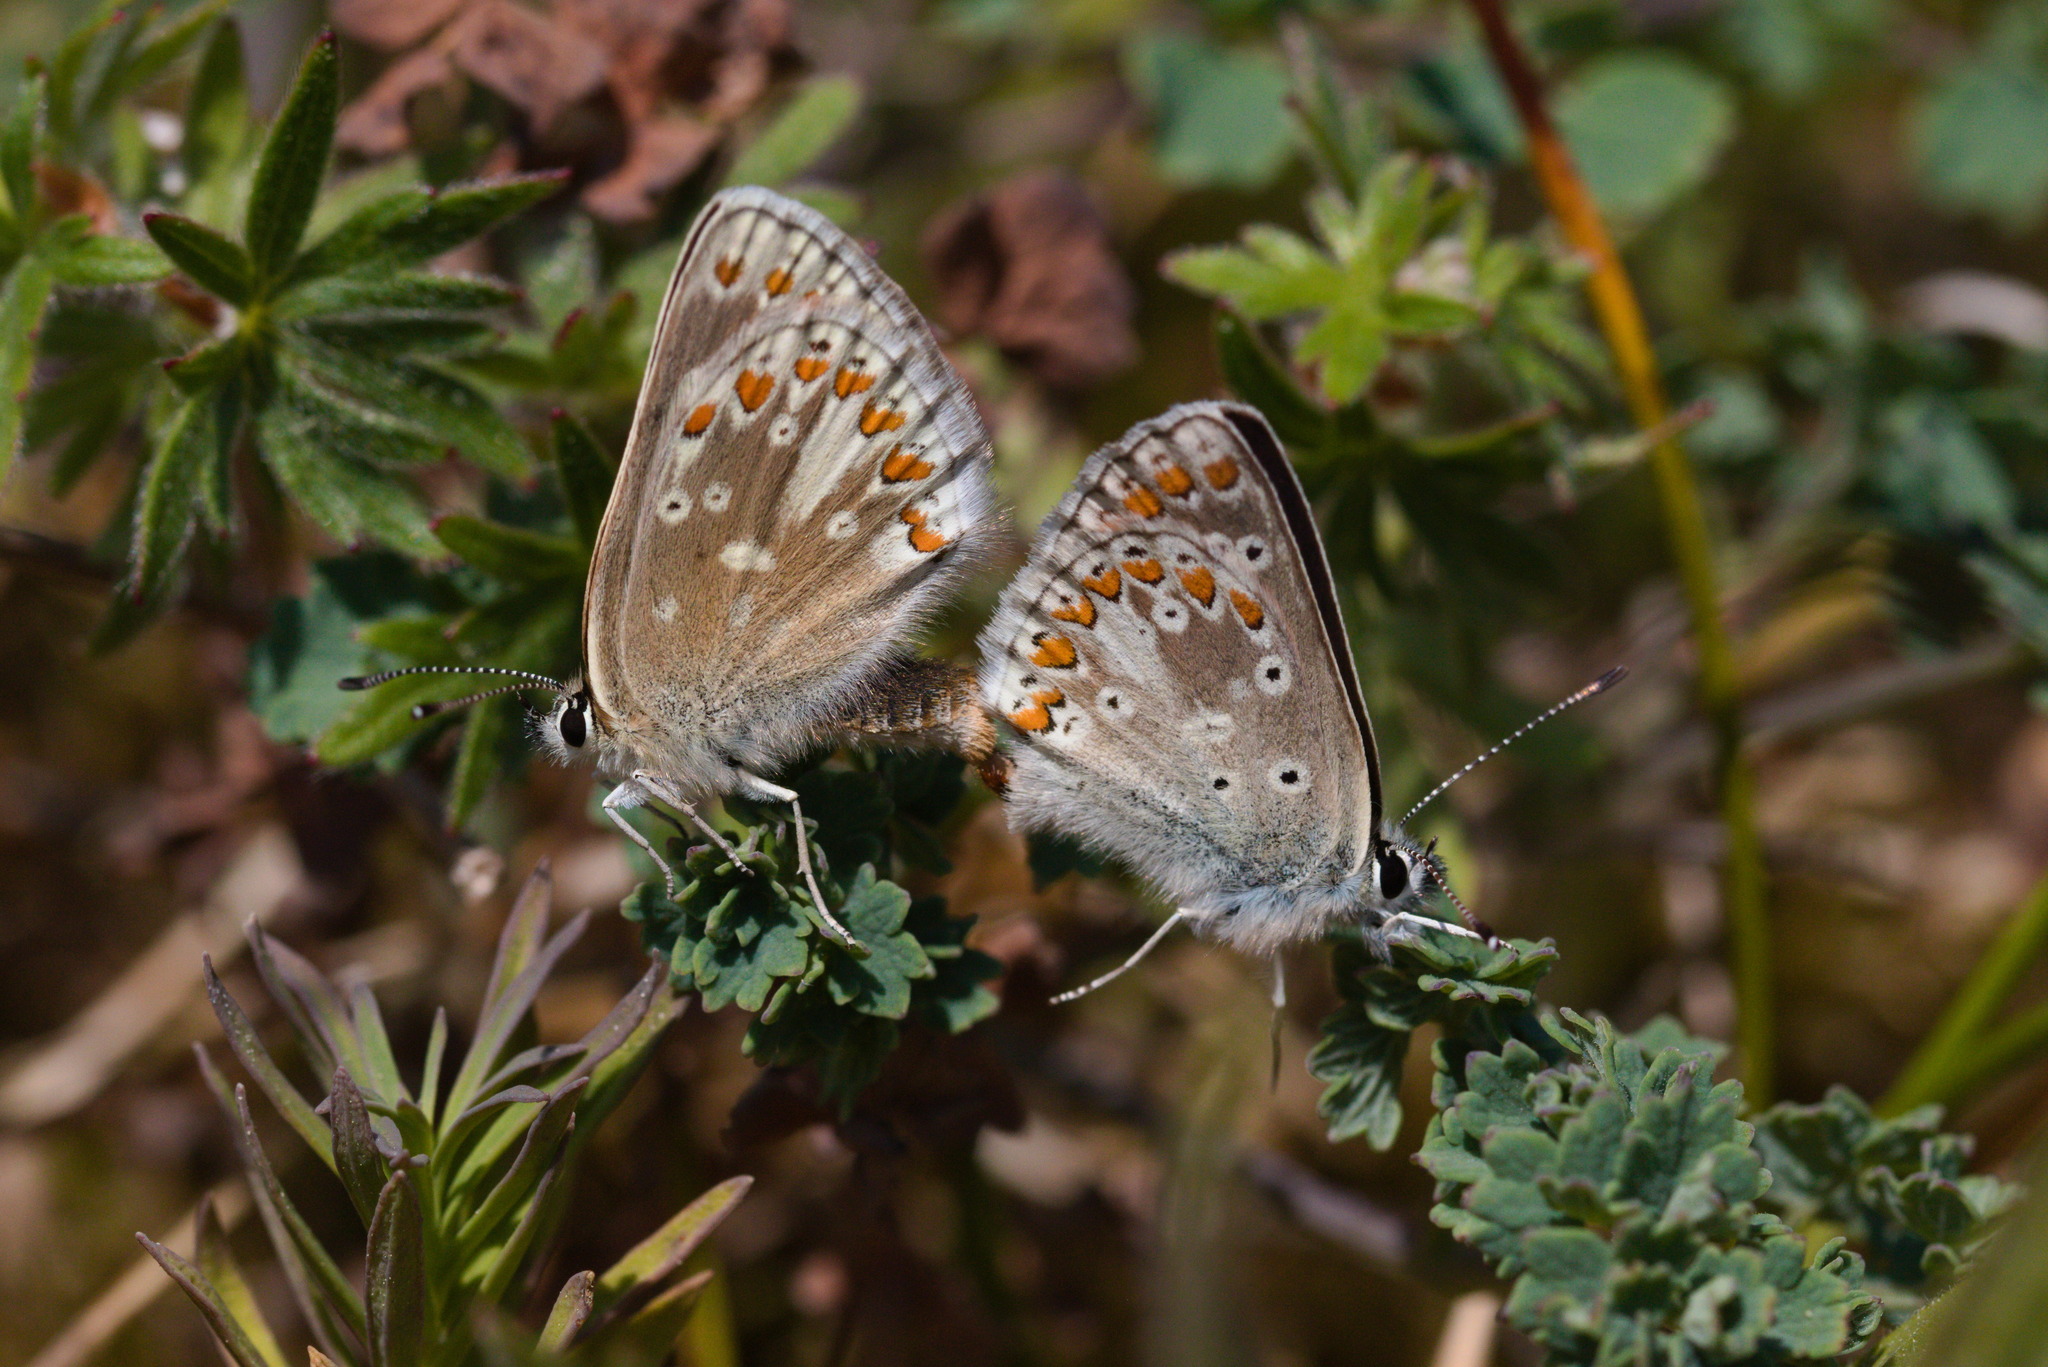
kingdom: Animalia
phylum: Arthropoda
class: Insecta
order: Lepidoptera
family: Lycaenidae
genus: Aricia
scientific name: Aricia artaxerxes
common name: Northern brown argus
